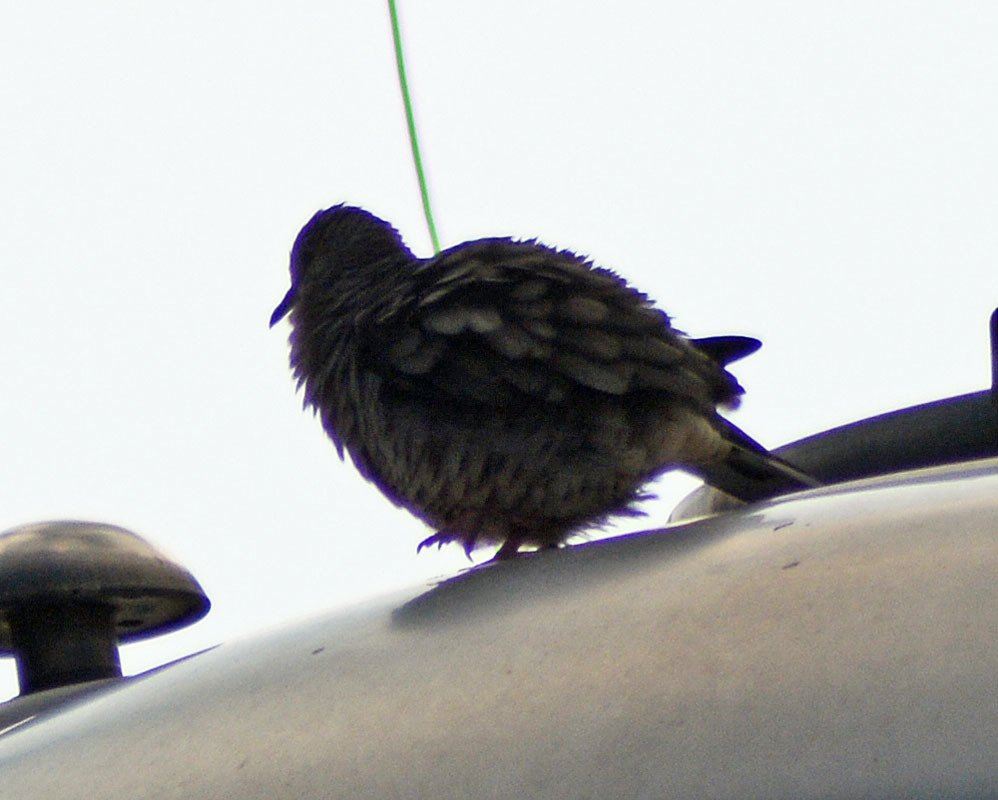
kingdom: Animalia
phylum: Chordata
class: Aves
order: Columbiformes
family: Columbidae
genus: Columbina
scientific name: Columbina inca
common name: Inca dove
